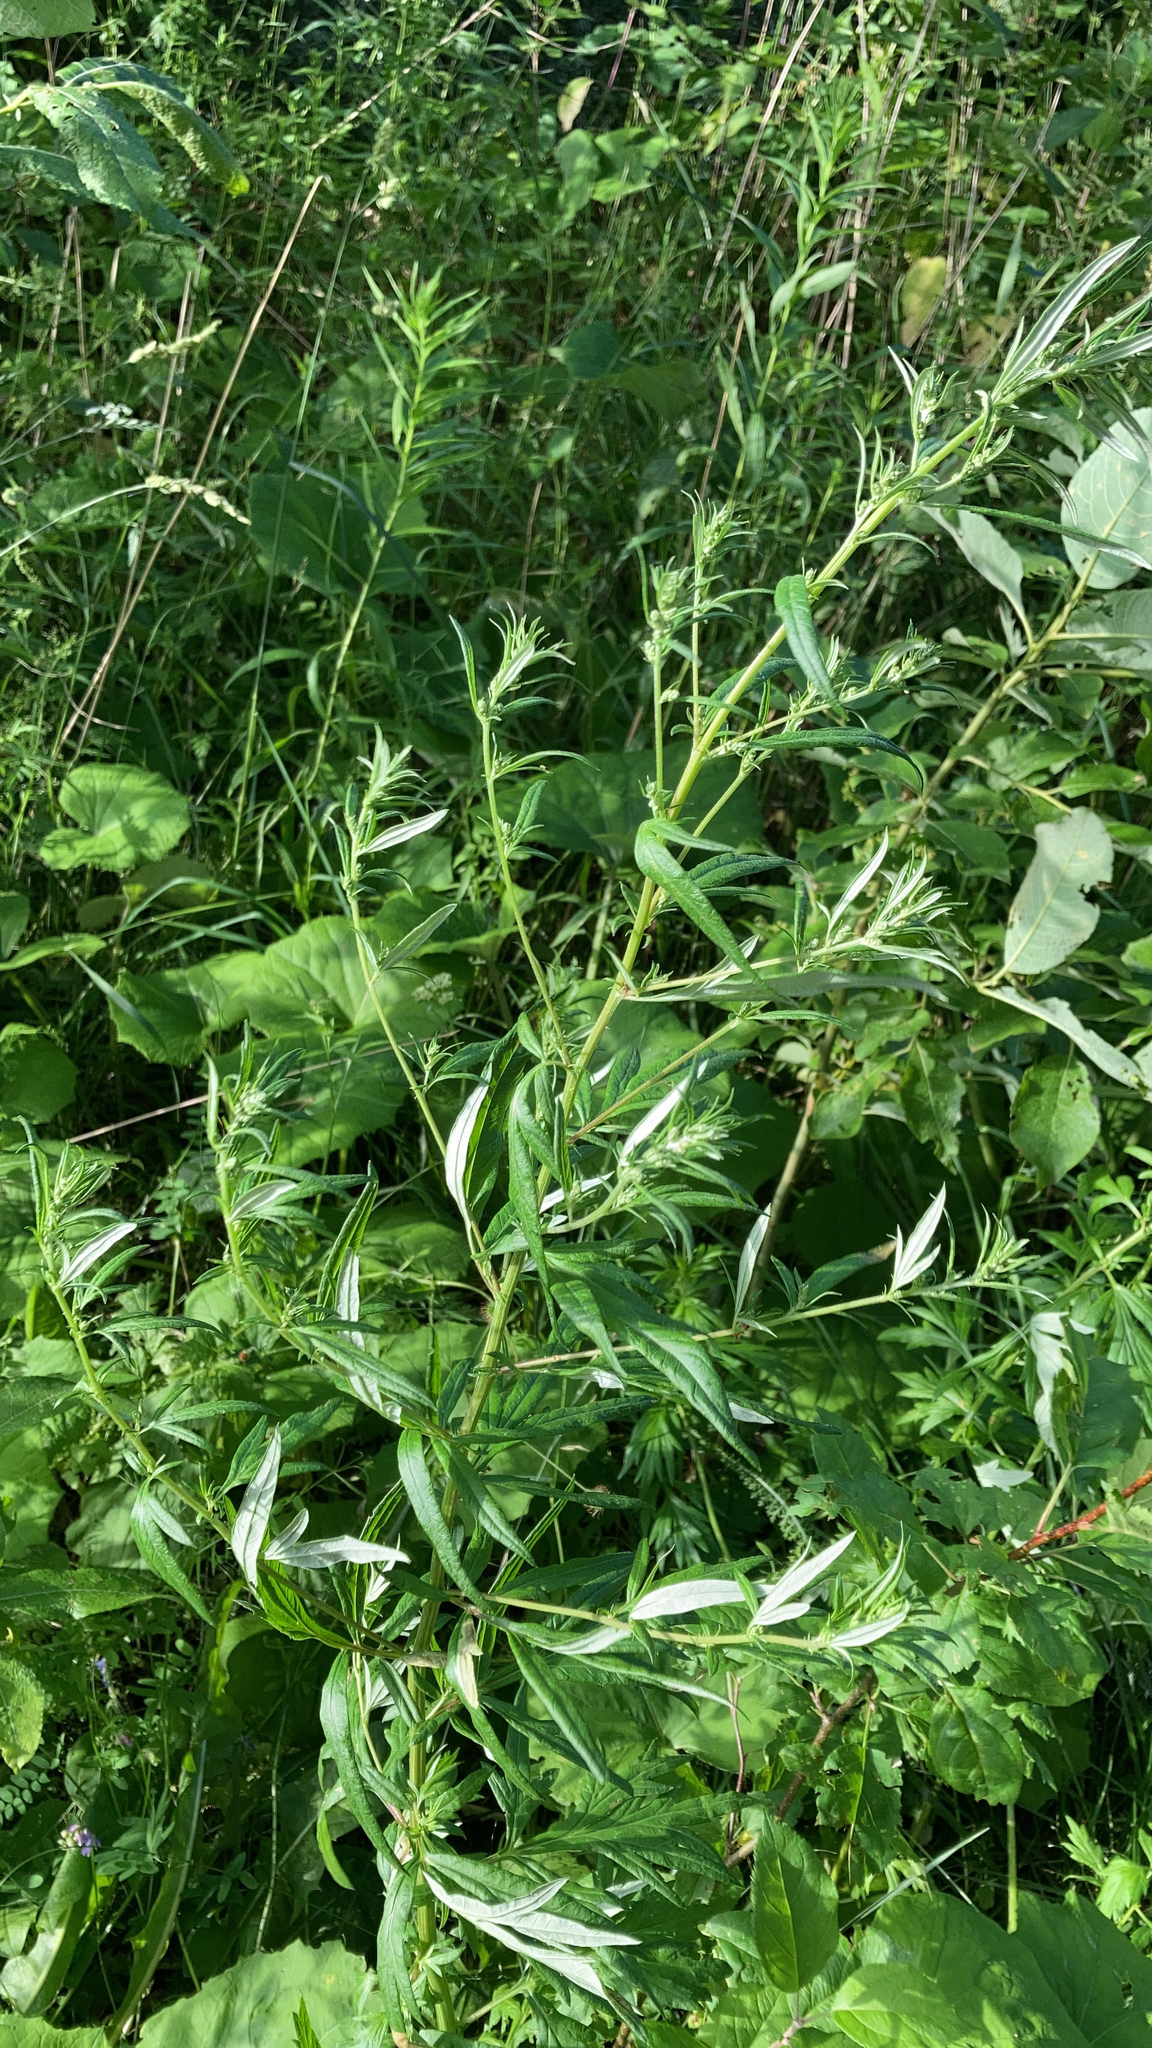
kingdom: Plantae
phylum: Tracheophyta
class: Magnoliopsida
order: Asterales
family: Asteraceae
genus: Artemisia
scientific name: Artemisia vulgaris
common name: Mugwort
